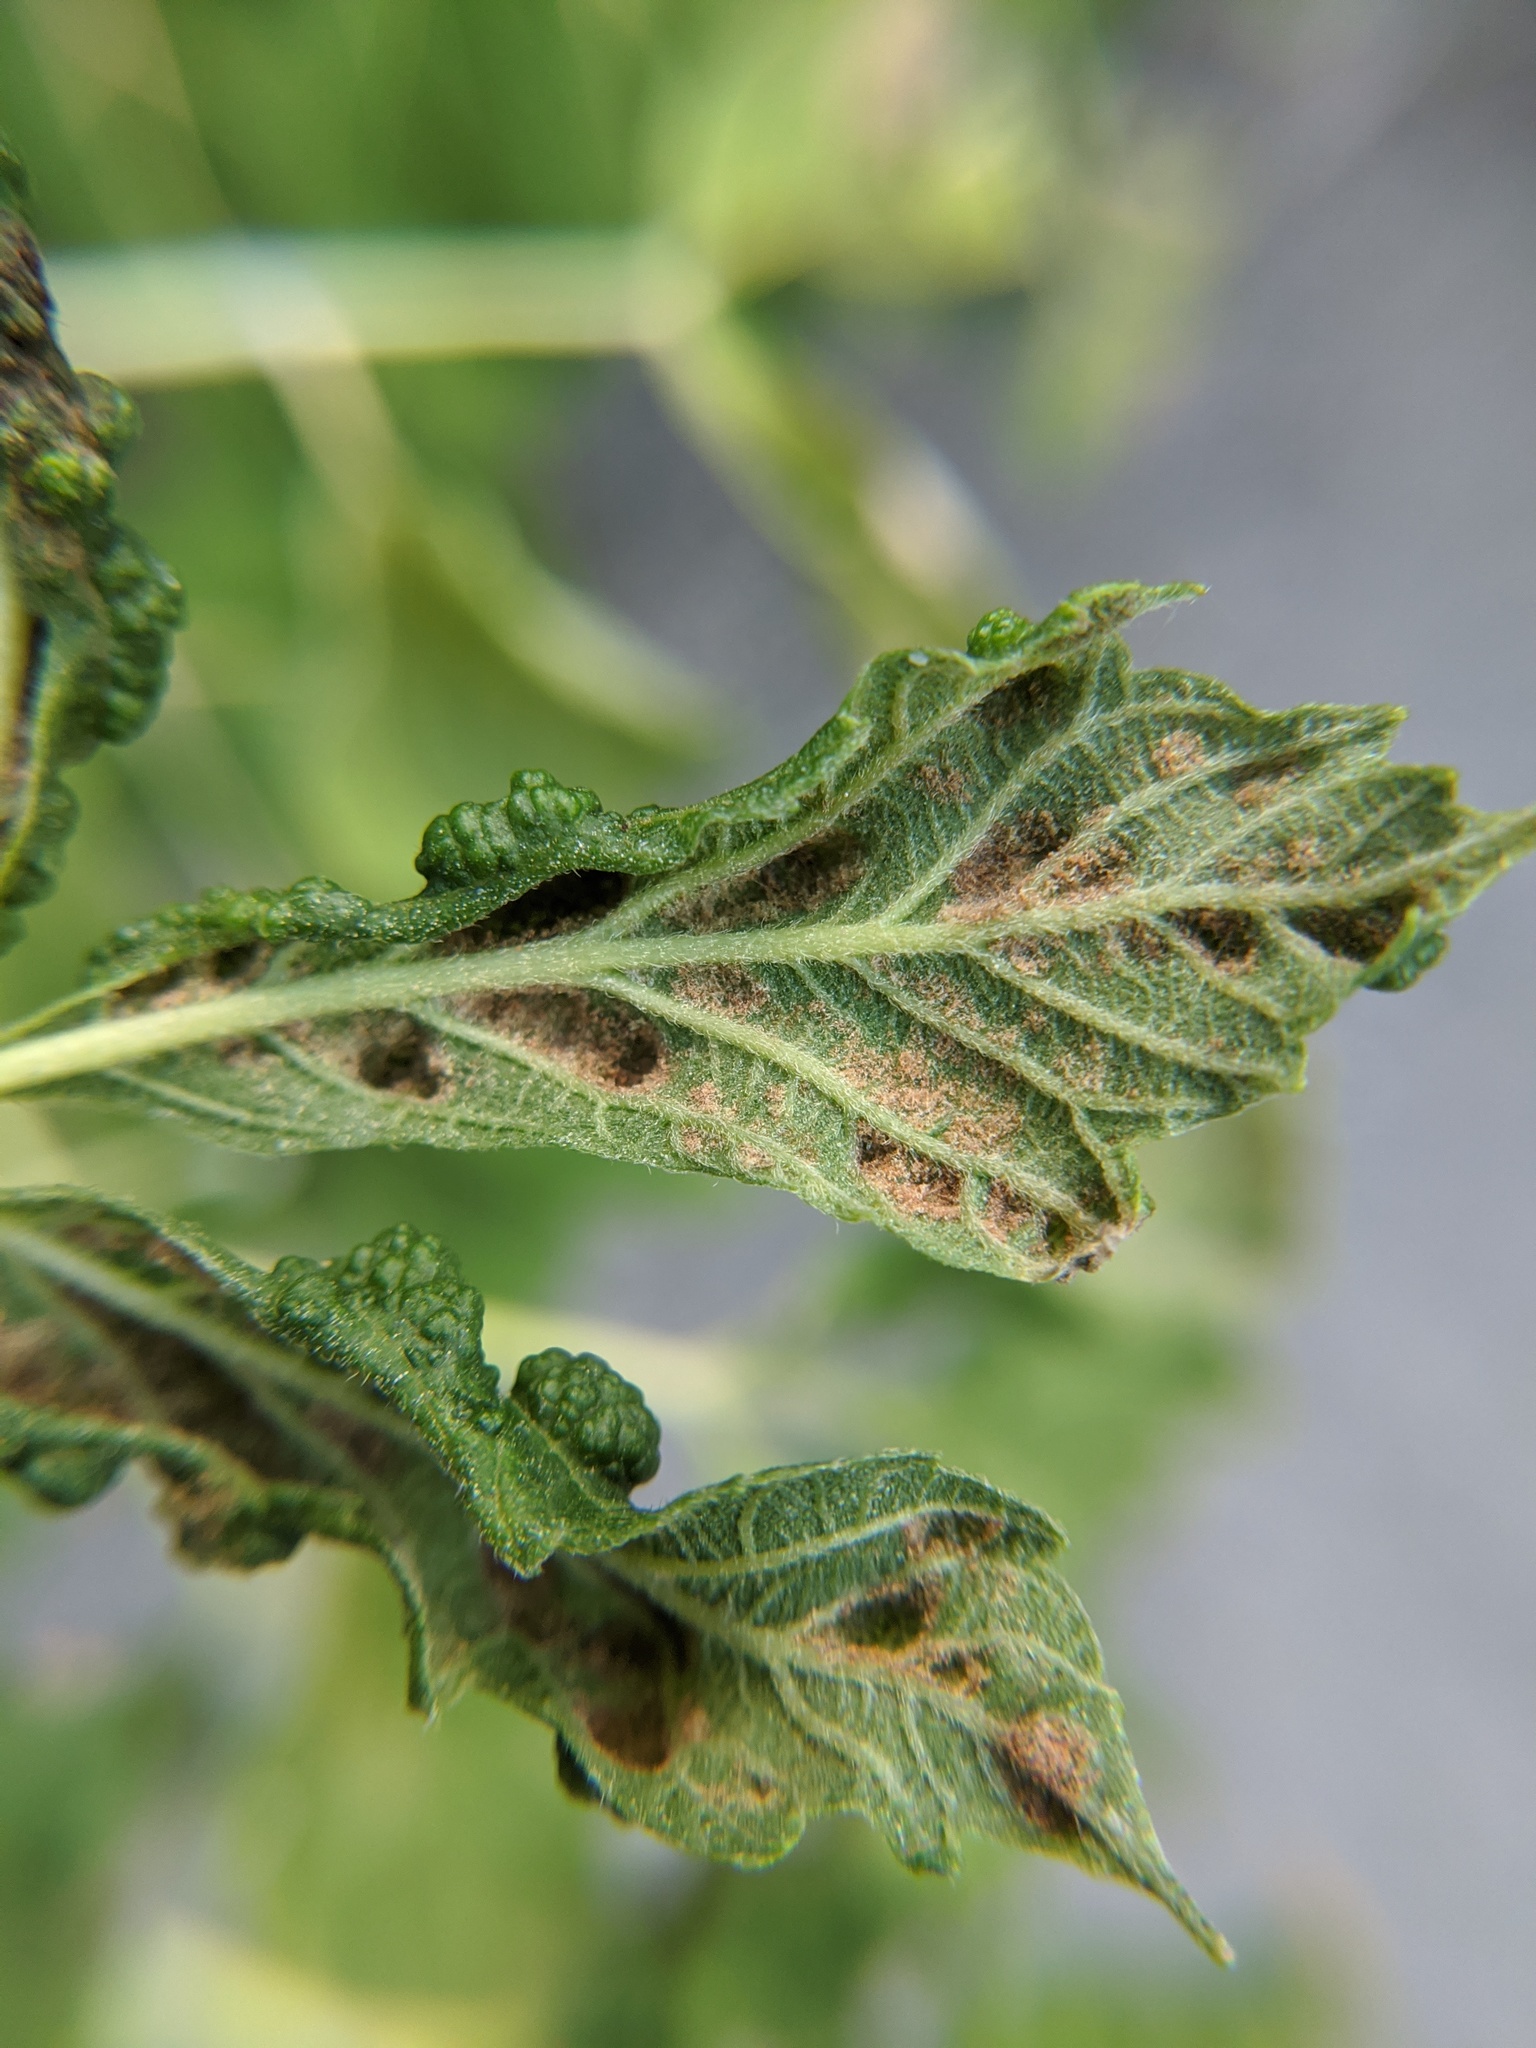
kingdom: Animalia
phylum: Arthropoda
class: Arachnida
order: Trombidiformes
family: Eriophyidae
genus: Aceria
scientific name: Aceria
